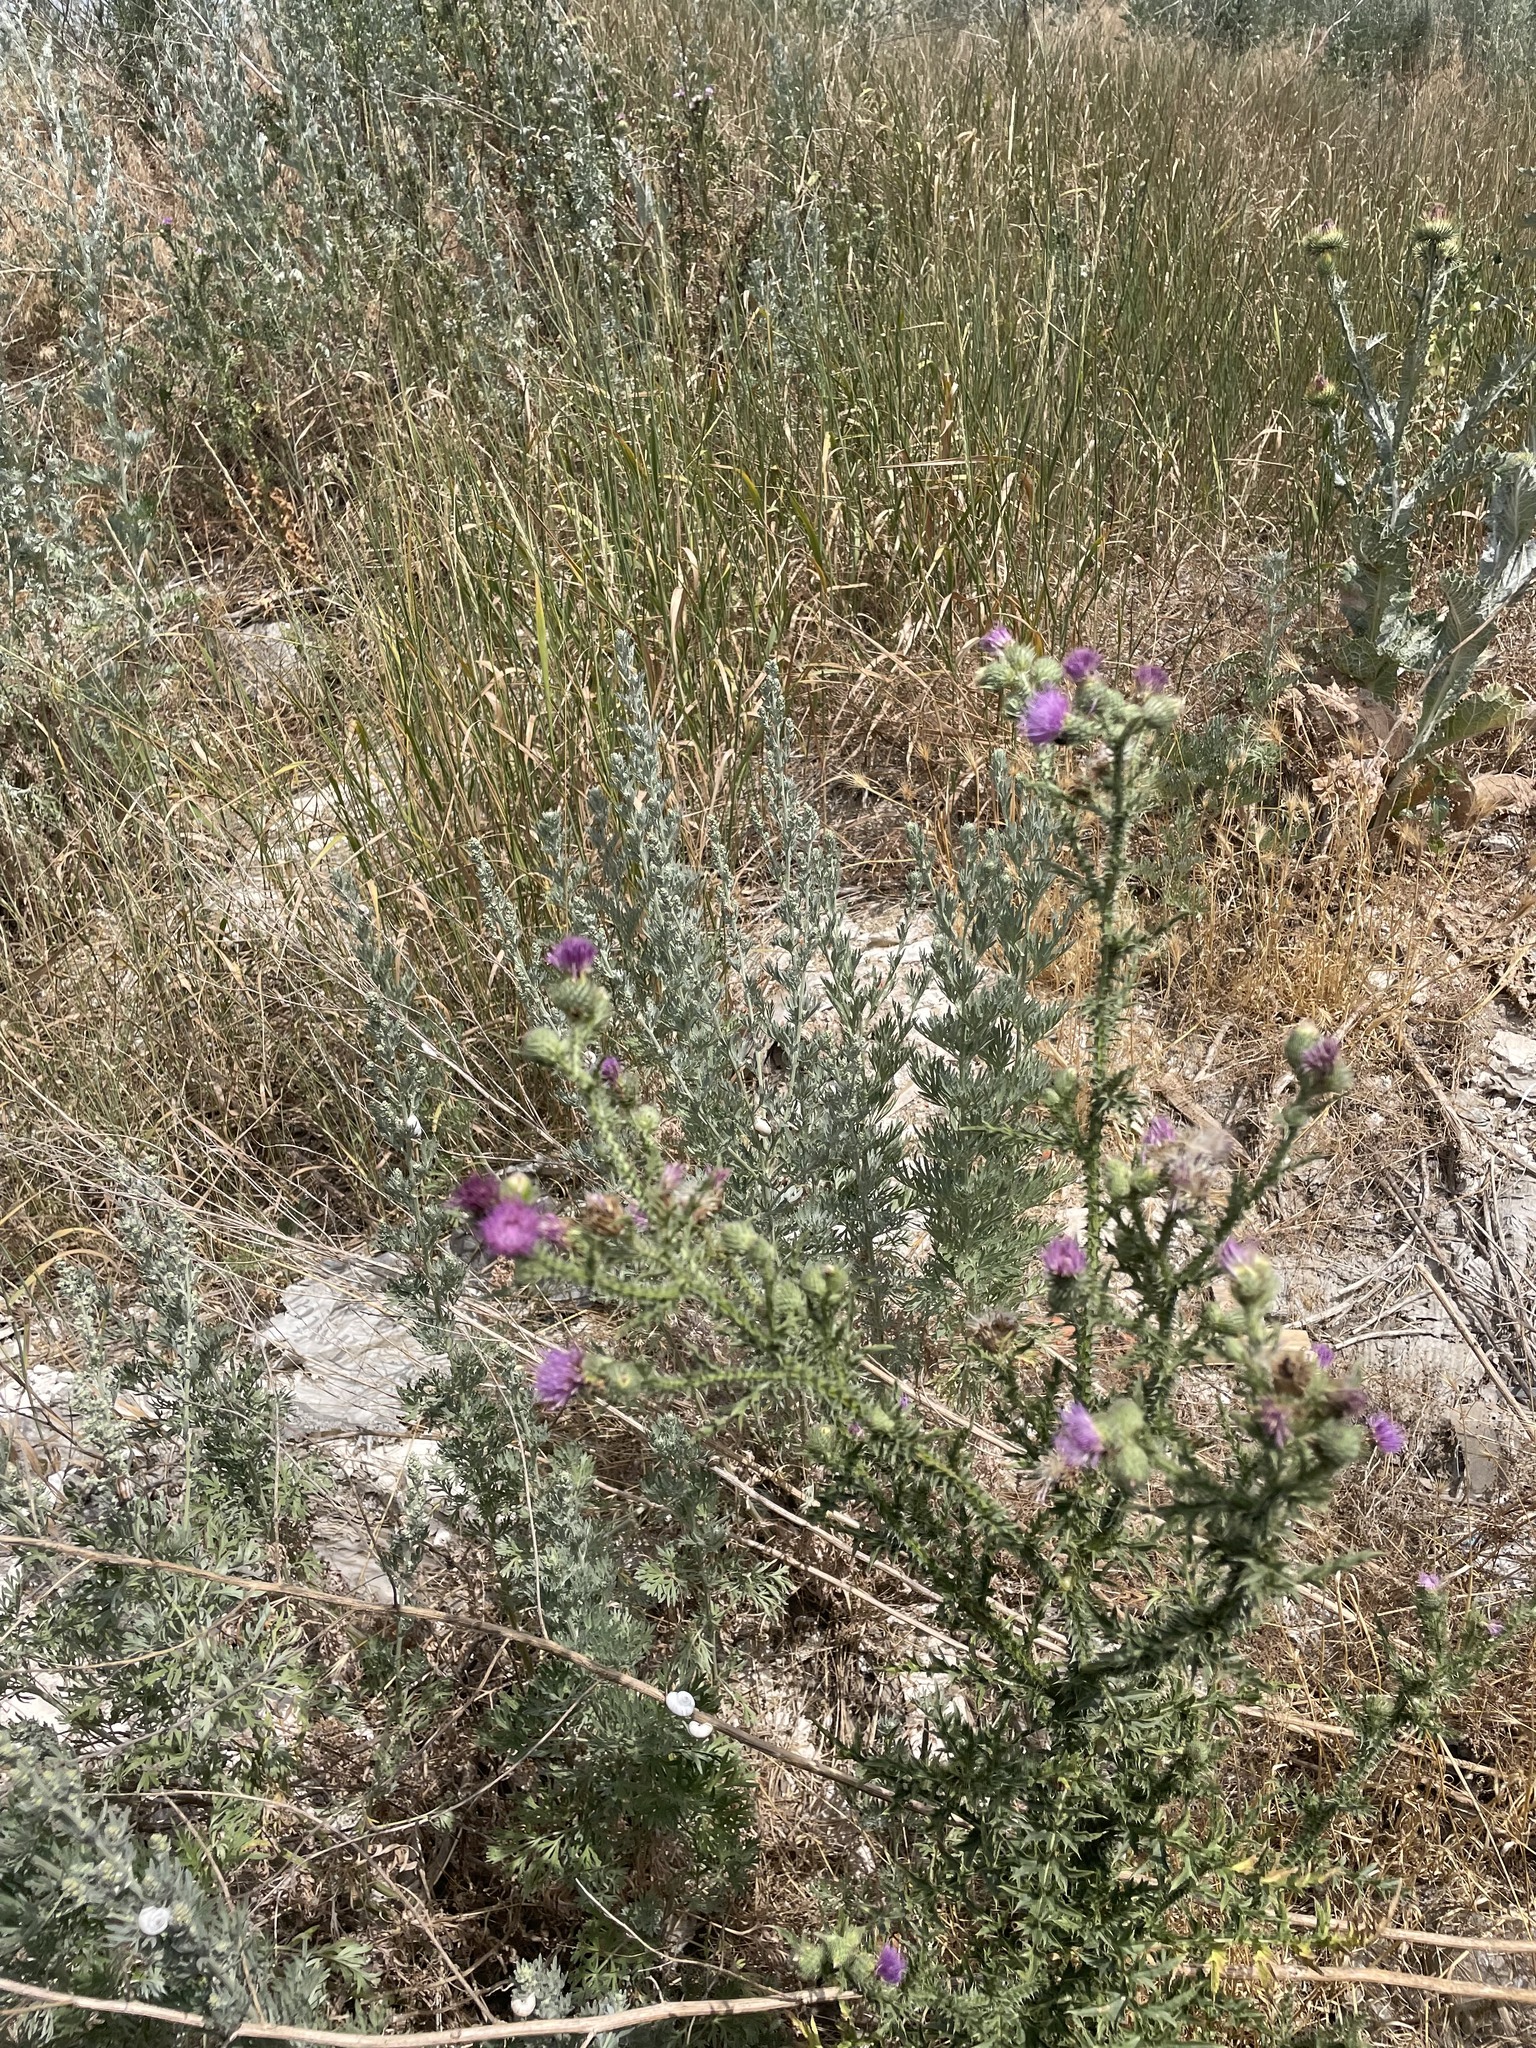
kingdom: Plantae
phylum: Tracheophyta
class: Magnoliopsida
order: Asterales
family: Asteraceae
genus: Carduus
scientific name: Carduus acanthoides
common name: Plumeless thistle
